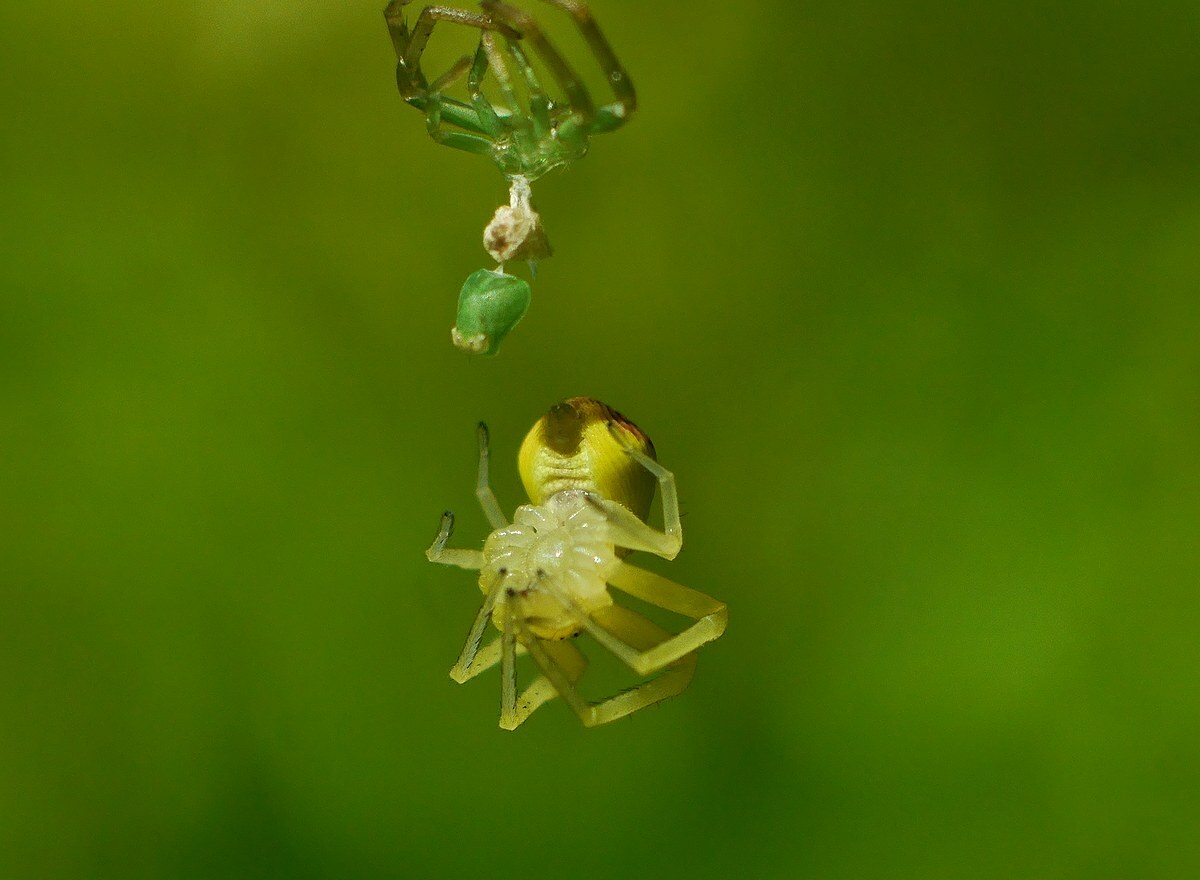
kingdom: Animalia
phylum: Arthropoda
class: Arachnida
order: Araneae
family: Thomisidae
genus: Ebrechtella
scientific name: Ebrechtella tricuspidata
